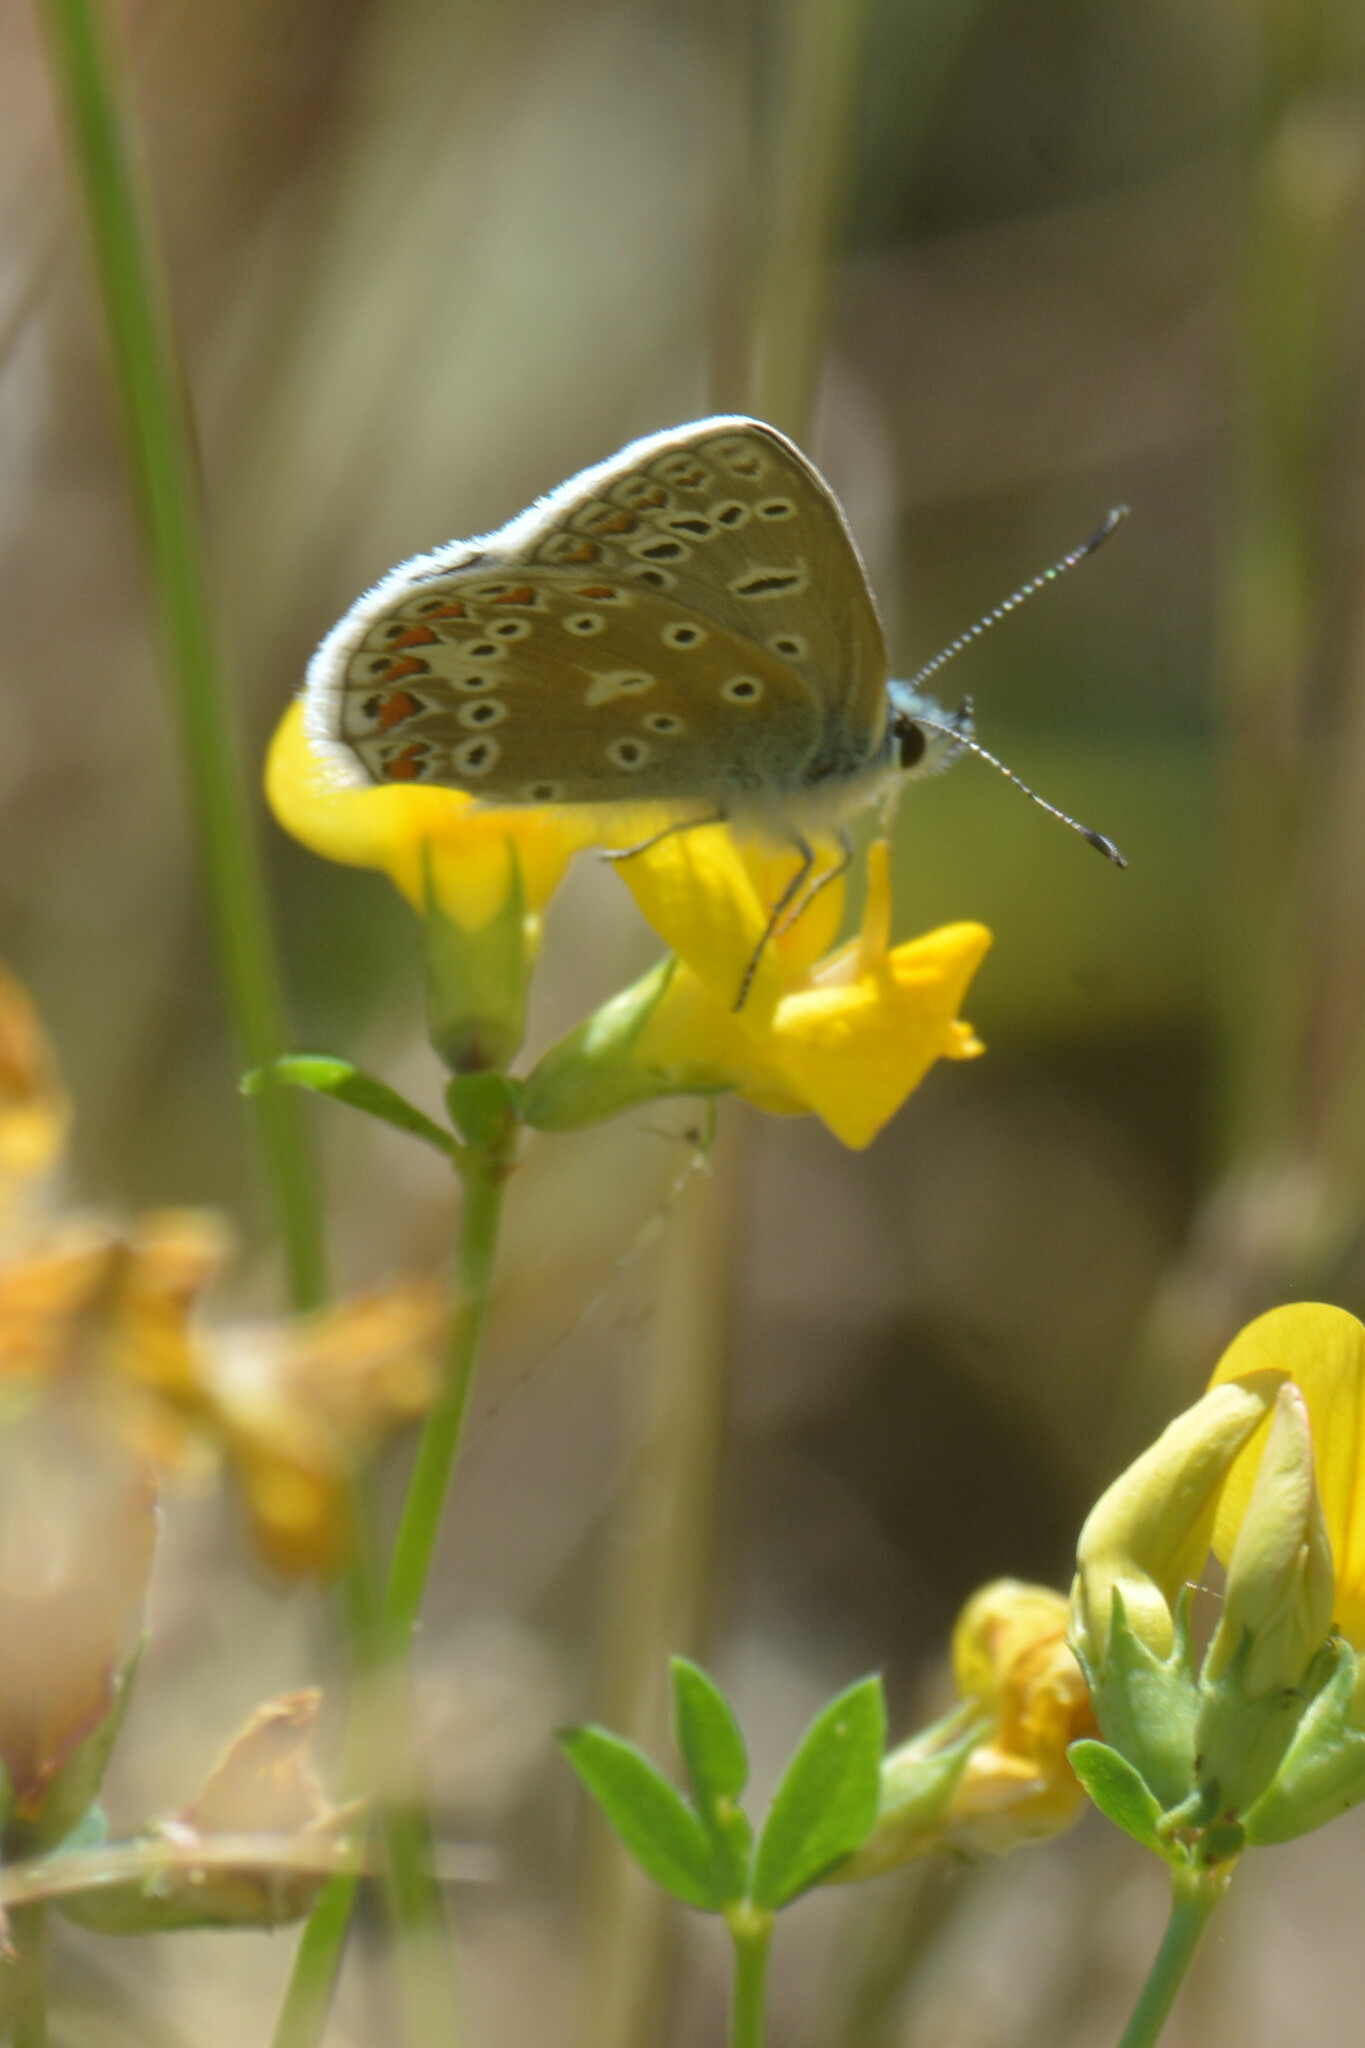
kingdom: Animalia
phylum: Arthropoda
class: Insecta
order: Lepidoptera
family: Lycaenidae
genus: Polyommatus
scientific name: Polyommatus icarus
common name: Common blue
